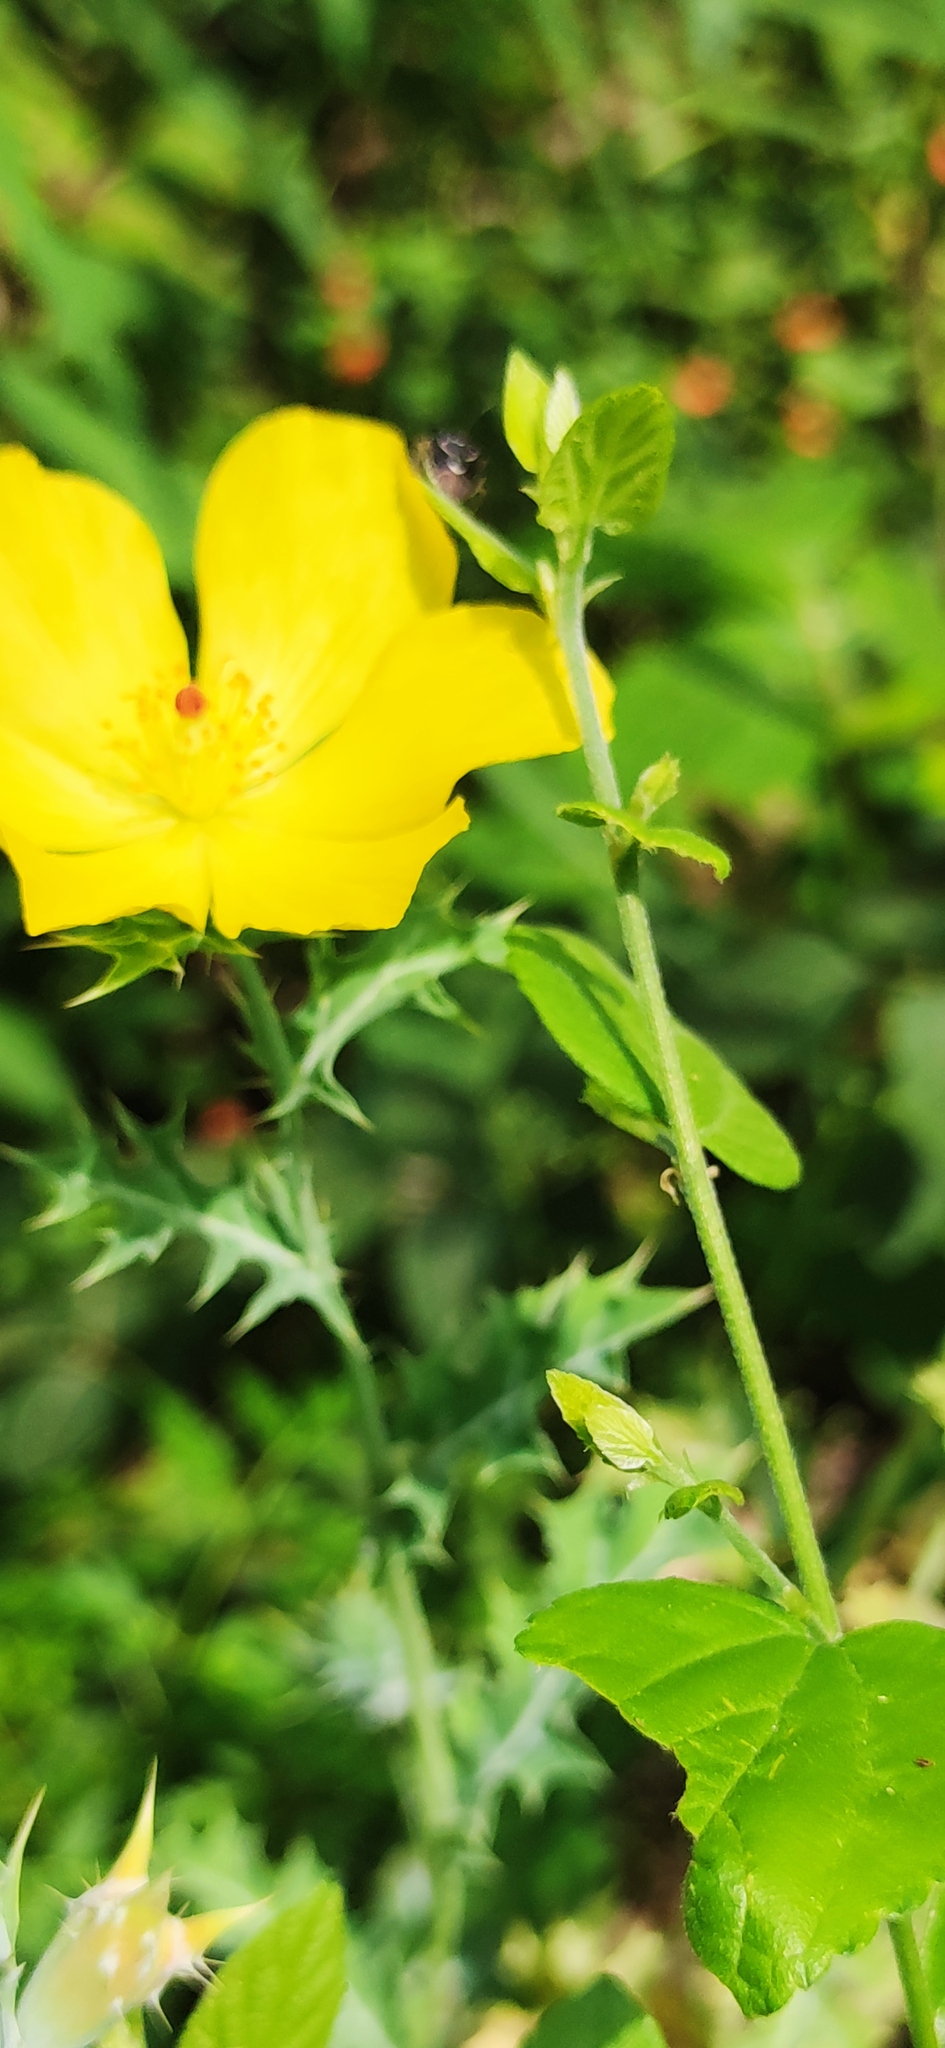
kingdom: Plantae
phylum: Tracheophyta
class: Magnoliopsida
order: Ranunculales
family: Papaveraceae
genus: Argemone
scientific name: Argemone mexicana
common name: Mexican poppy
